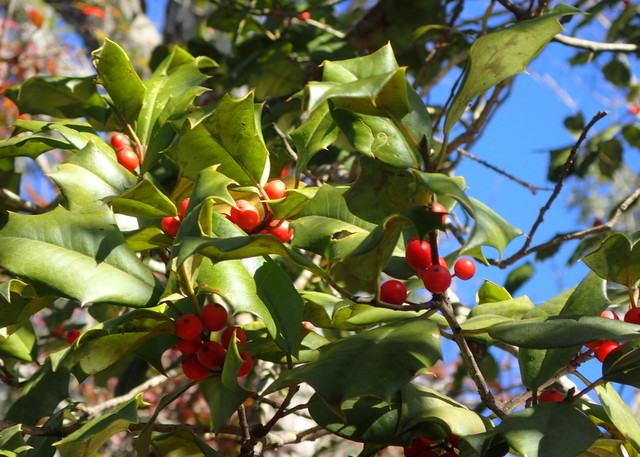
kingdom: Plantae
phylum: Tracheophyta
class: Magnoliopsida
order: Aquifoliales
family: Aquifoliaceae
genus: Ilex
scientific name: Ilex opaca
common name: American holly
